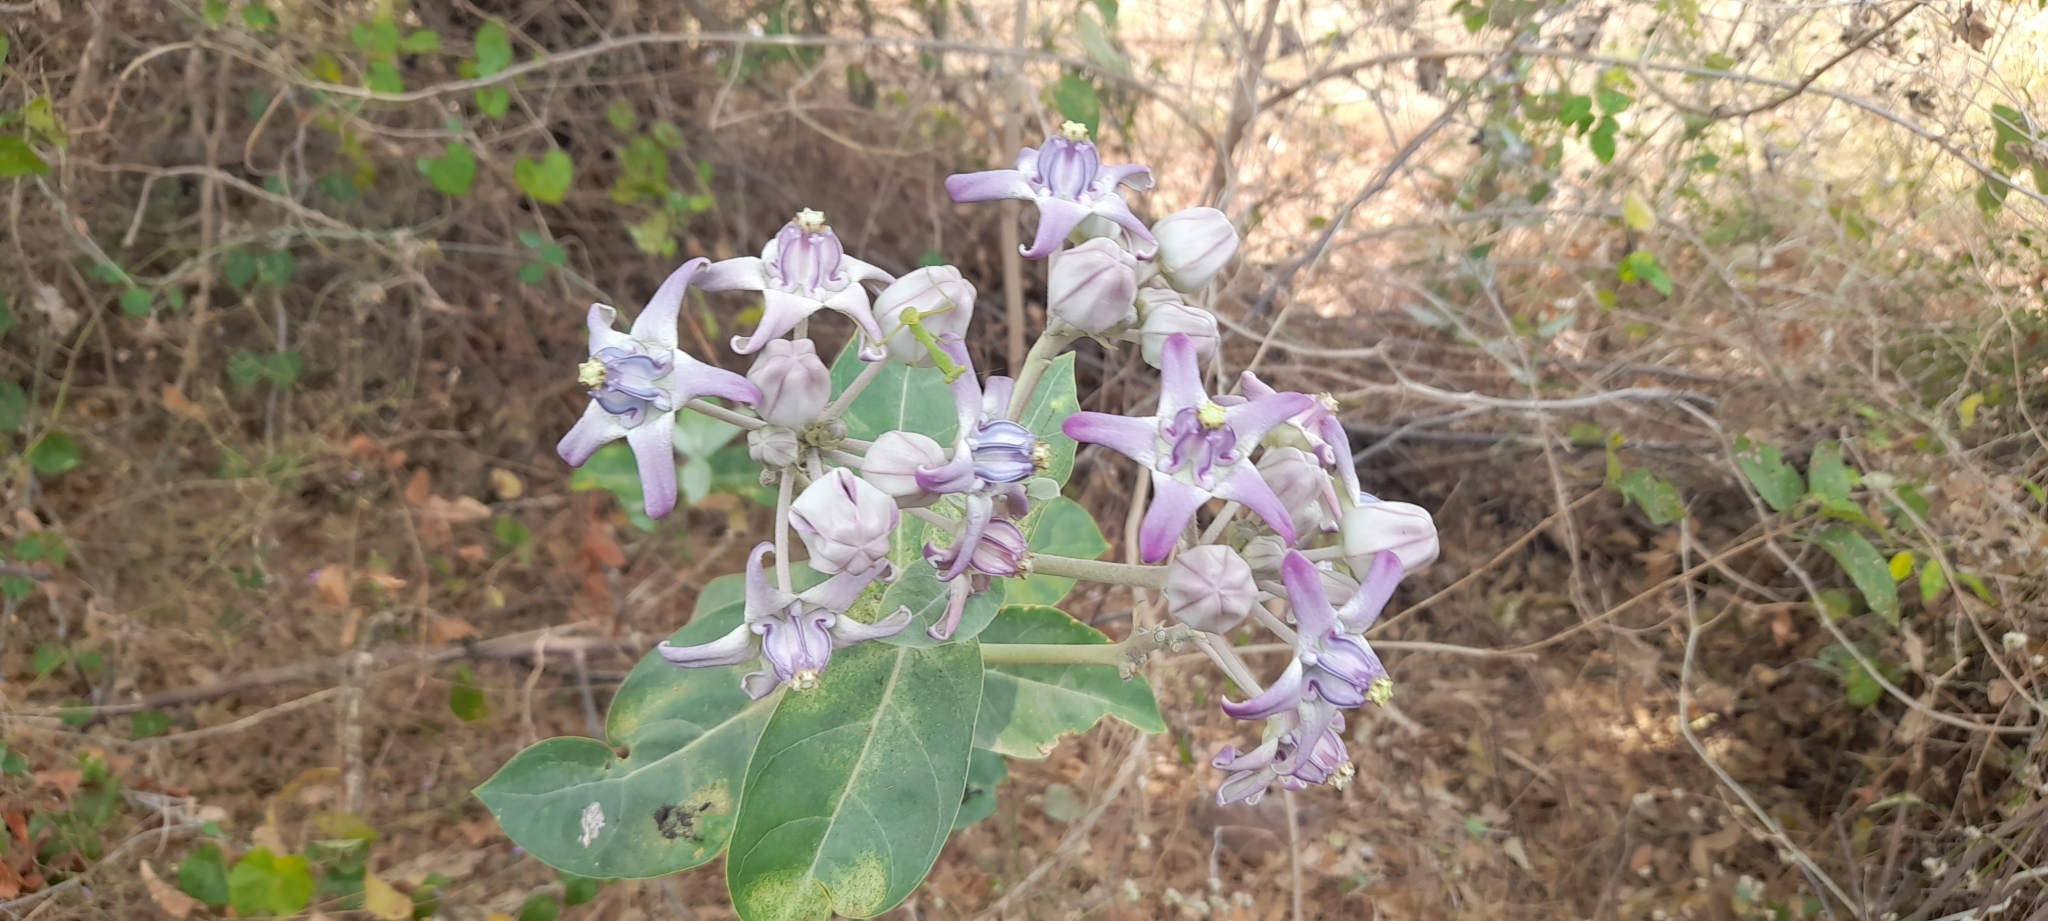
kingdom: Plantae
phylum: Tracheophyta
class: Magnoliopsida
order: Gentianales
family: Apocynaceae
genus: Calotropis
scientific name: Calotropis gigantea
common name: Crown flower
